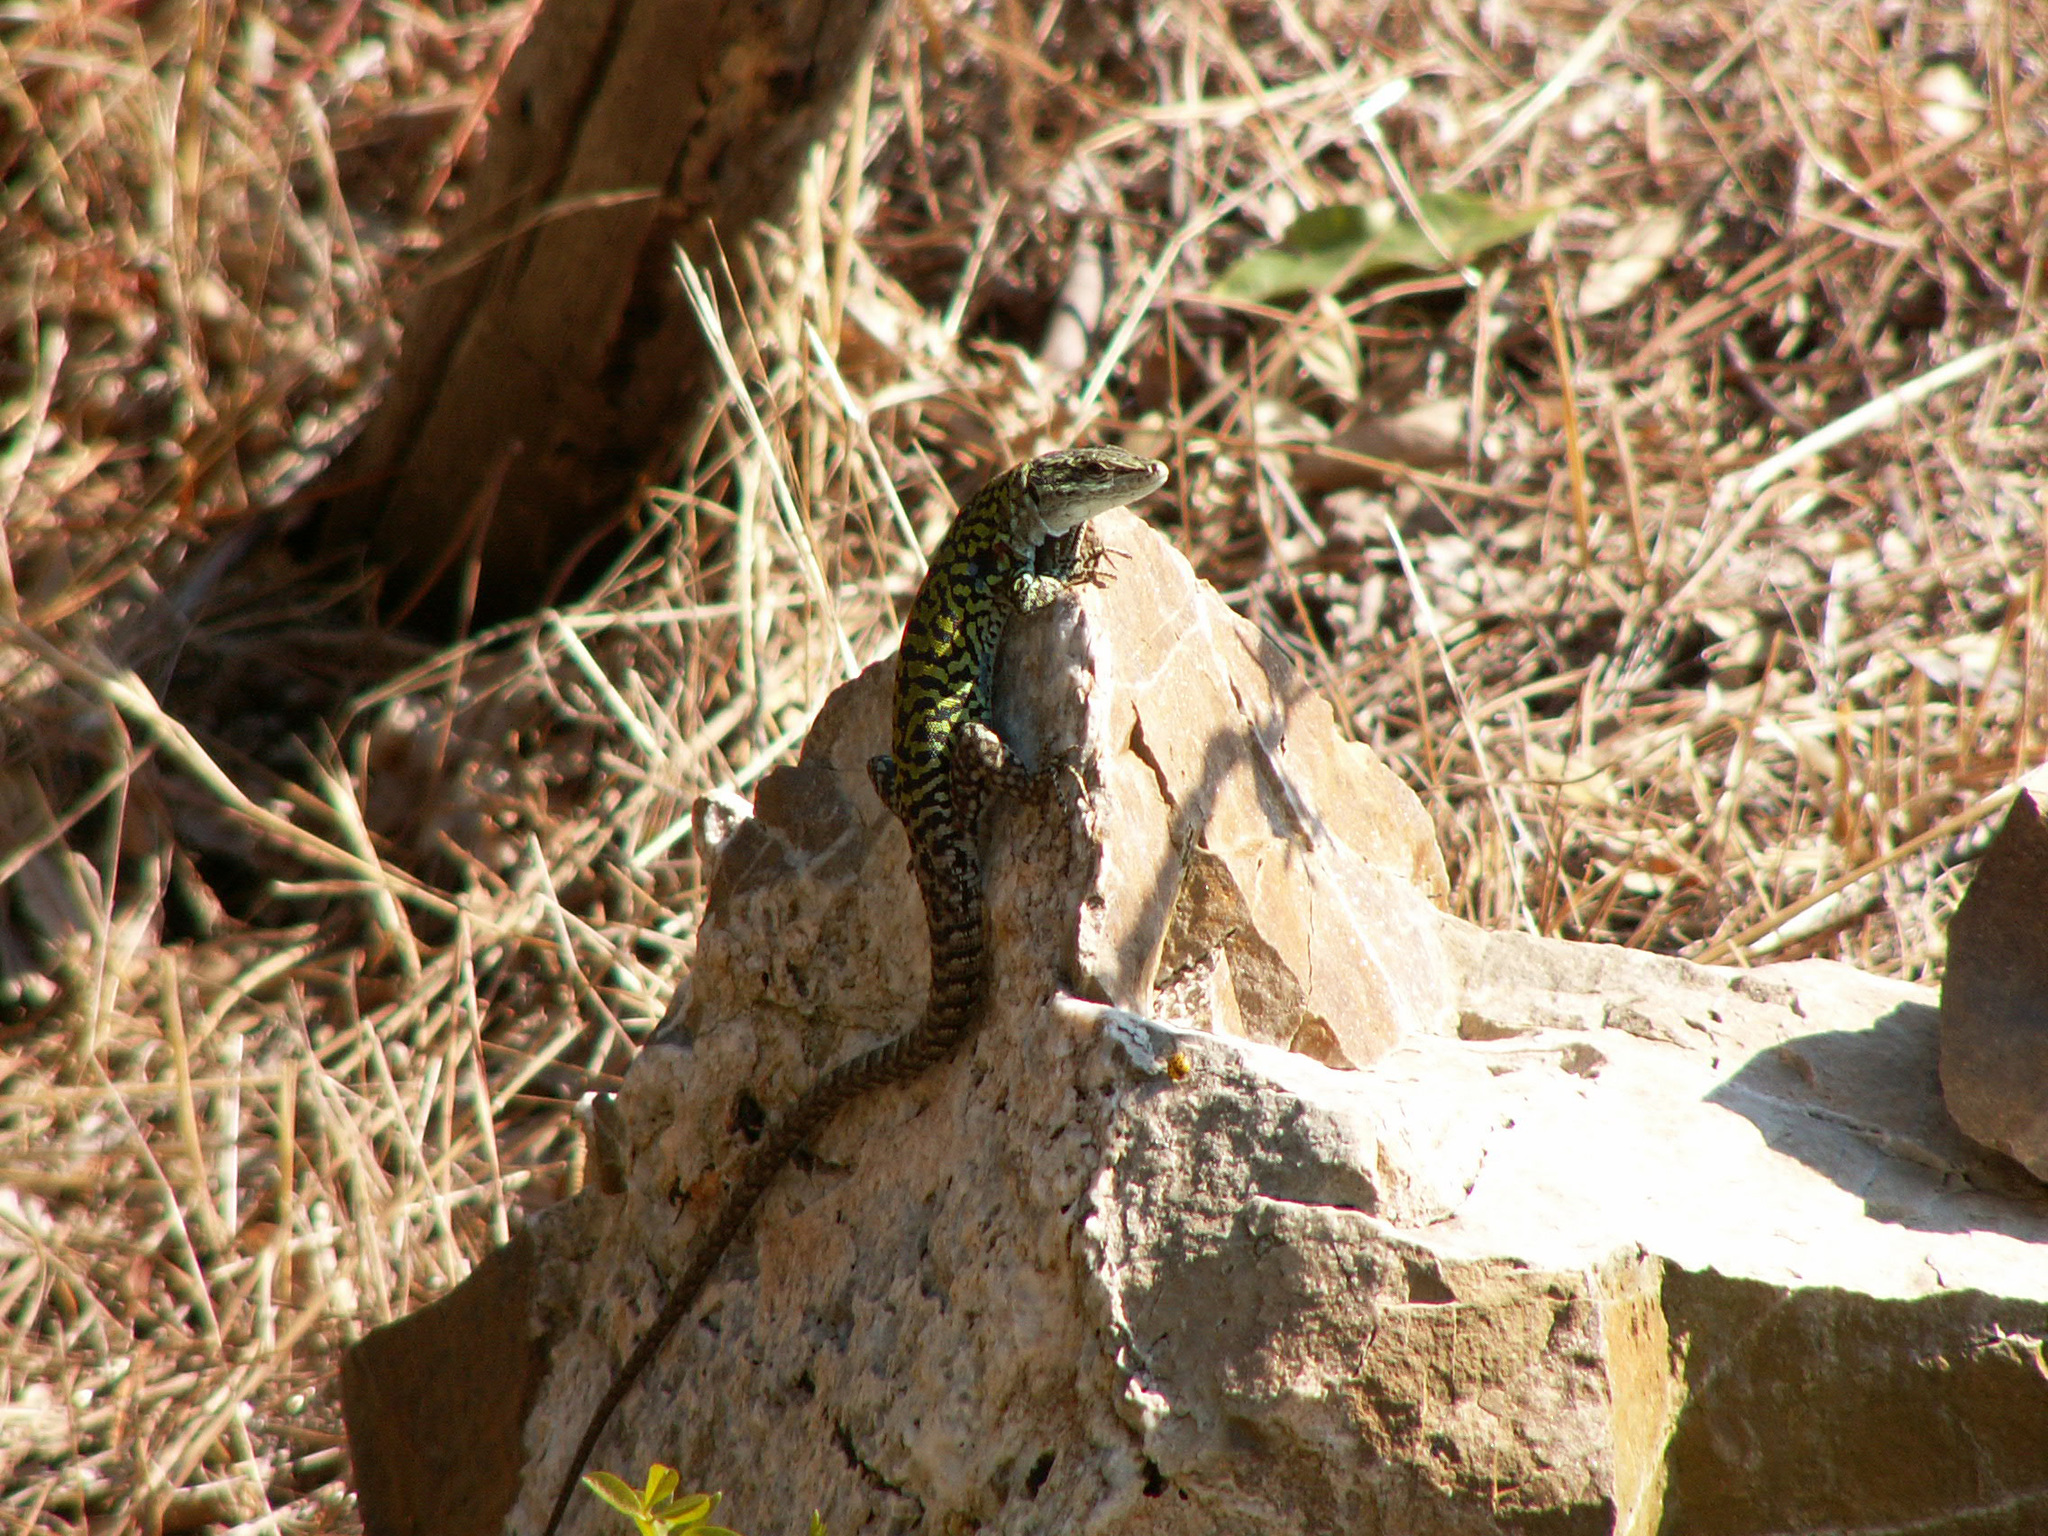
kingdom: Animalia
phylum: Chordata
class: Squamata
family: Lacertidae
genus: Podarcis
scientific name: Podarcis siculus
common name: Italian wall lizard
